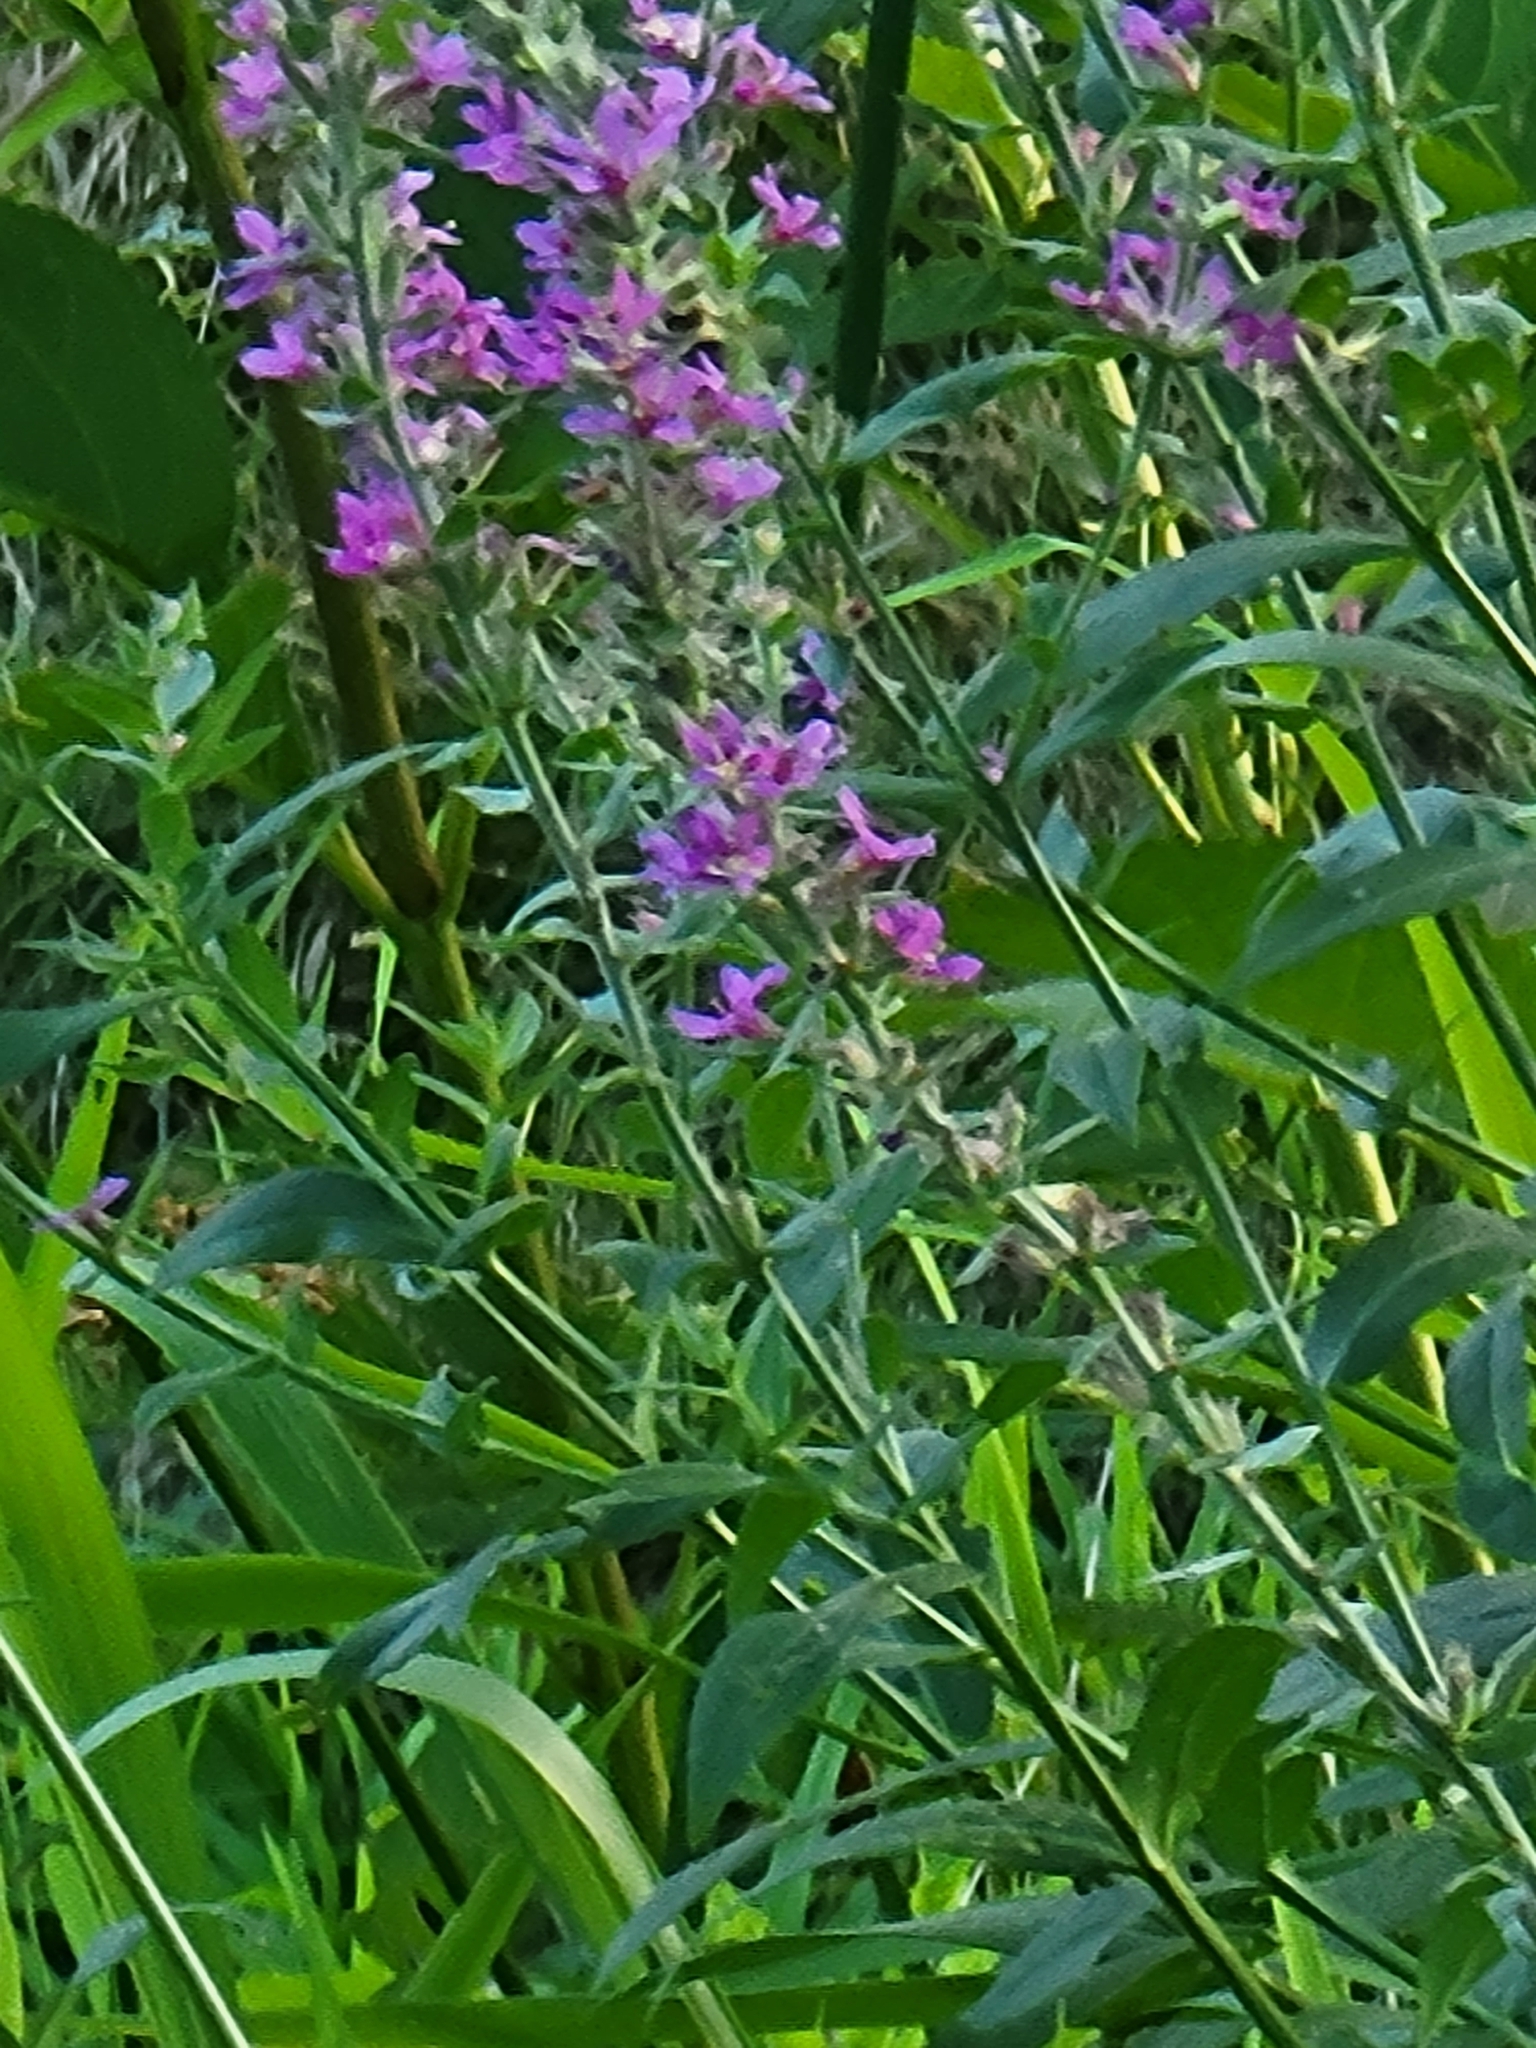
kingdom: Plantae
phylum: Tracheophyta
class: Magnoliopsida
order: Myrtales
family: Lythraceae
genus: Lythrum
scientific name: Lythrum salicaria
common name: Purple loosestrife
